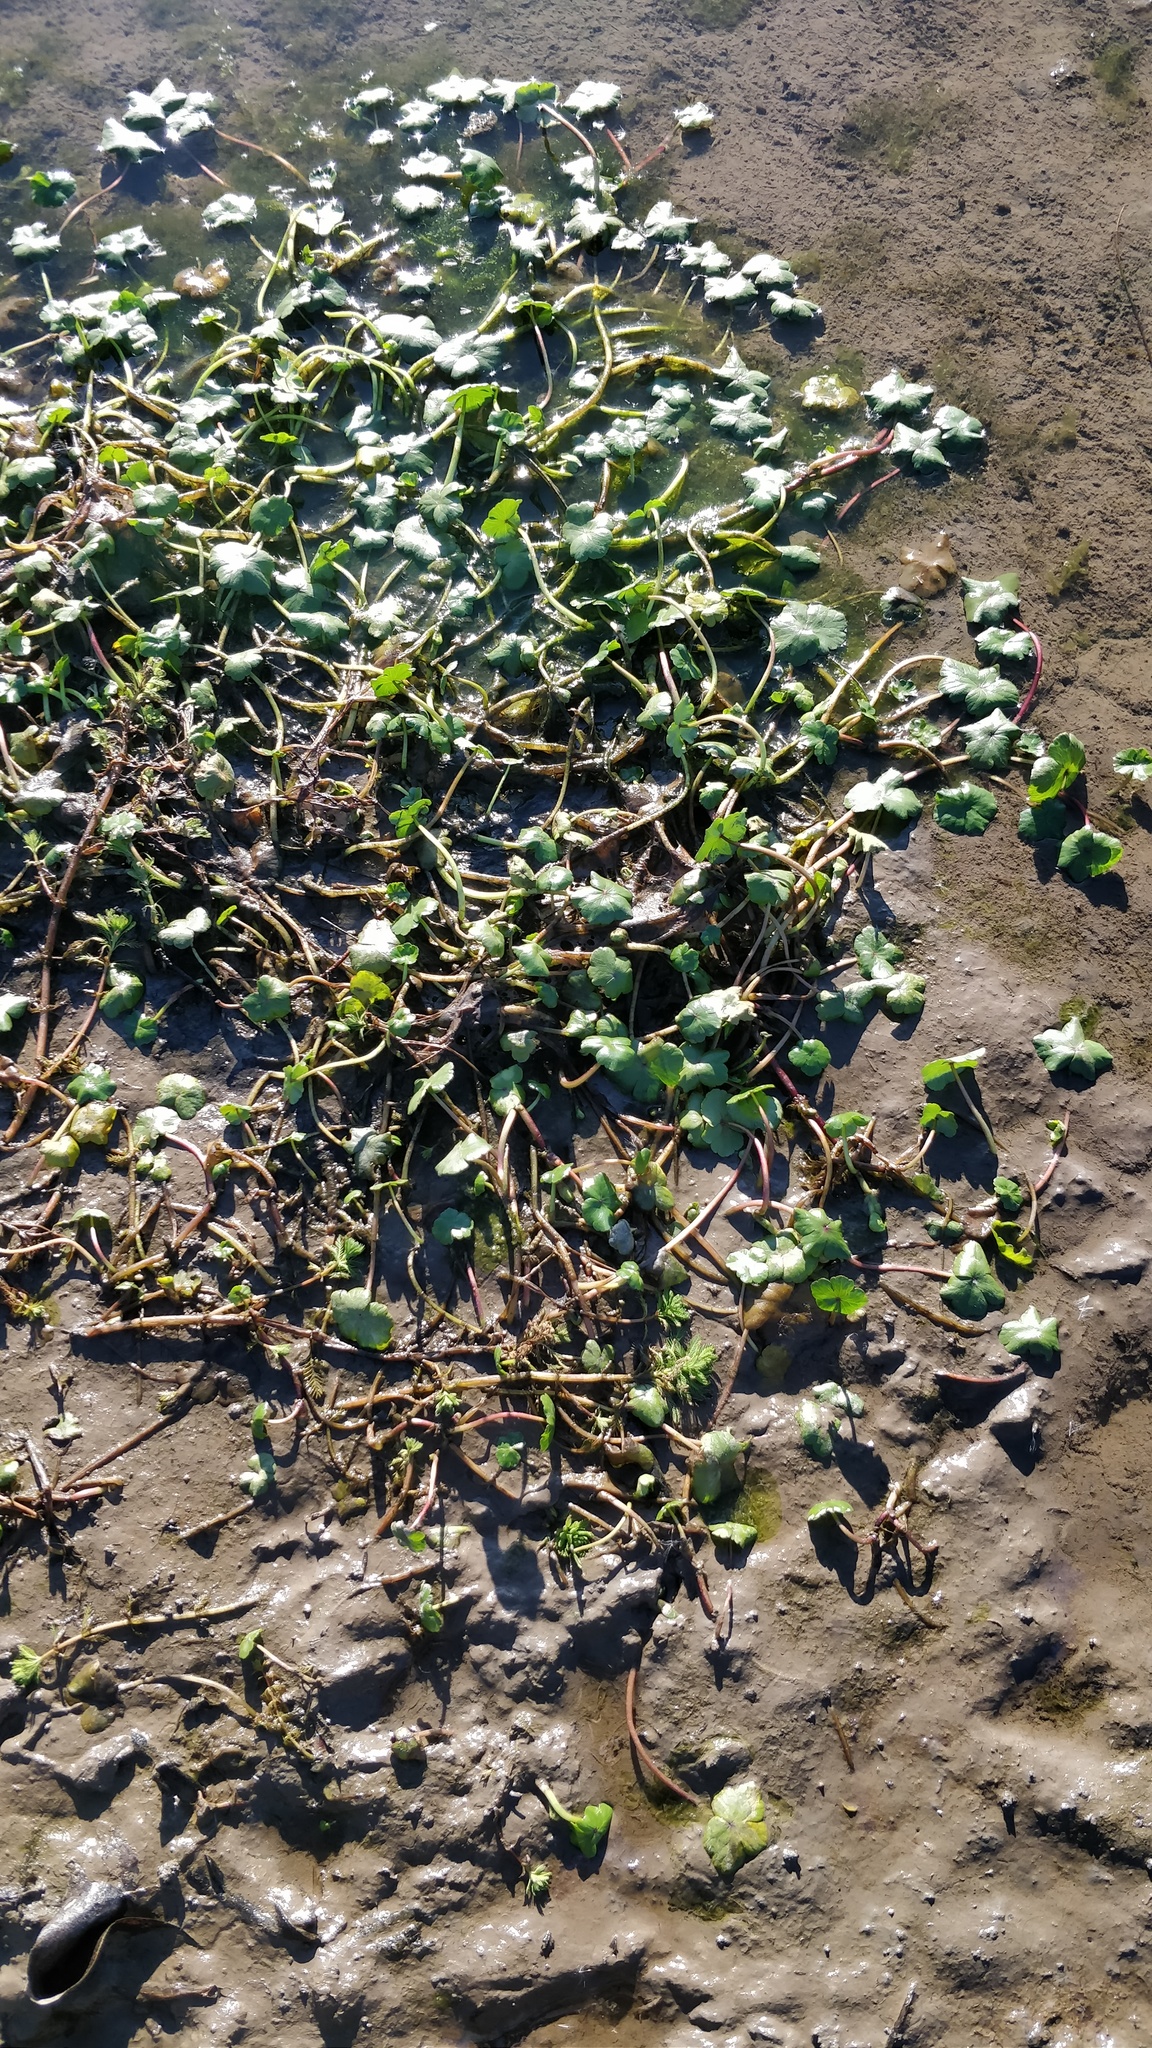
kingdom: Plantae
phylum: Tracheophyta
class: Magnoliopsida
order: Apiales
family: Araliaceae
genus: Hydrocotyle
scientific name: Hydrocotyle ranunculoides
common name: Floating pennywort
